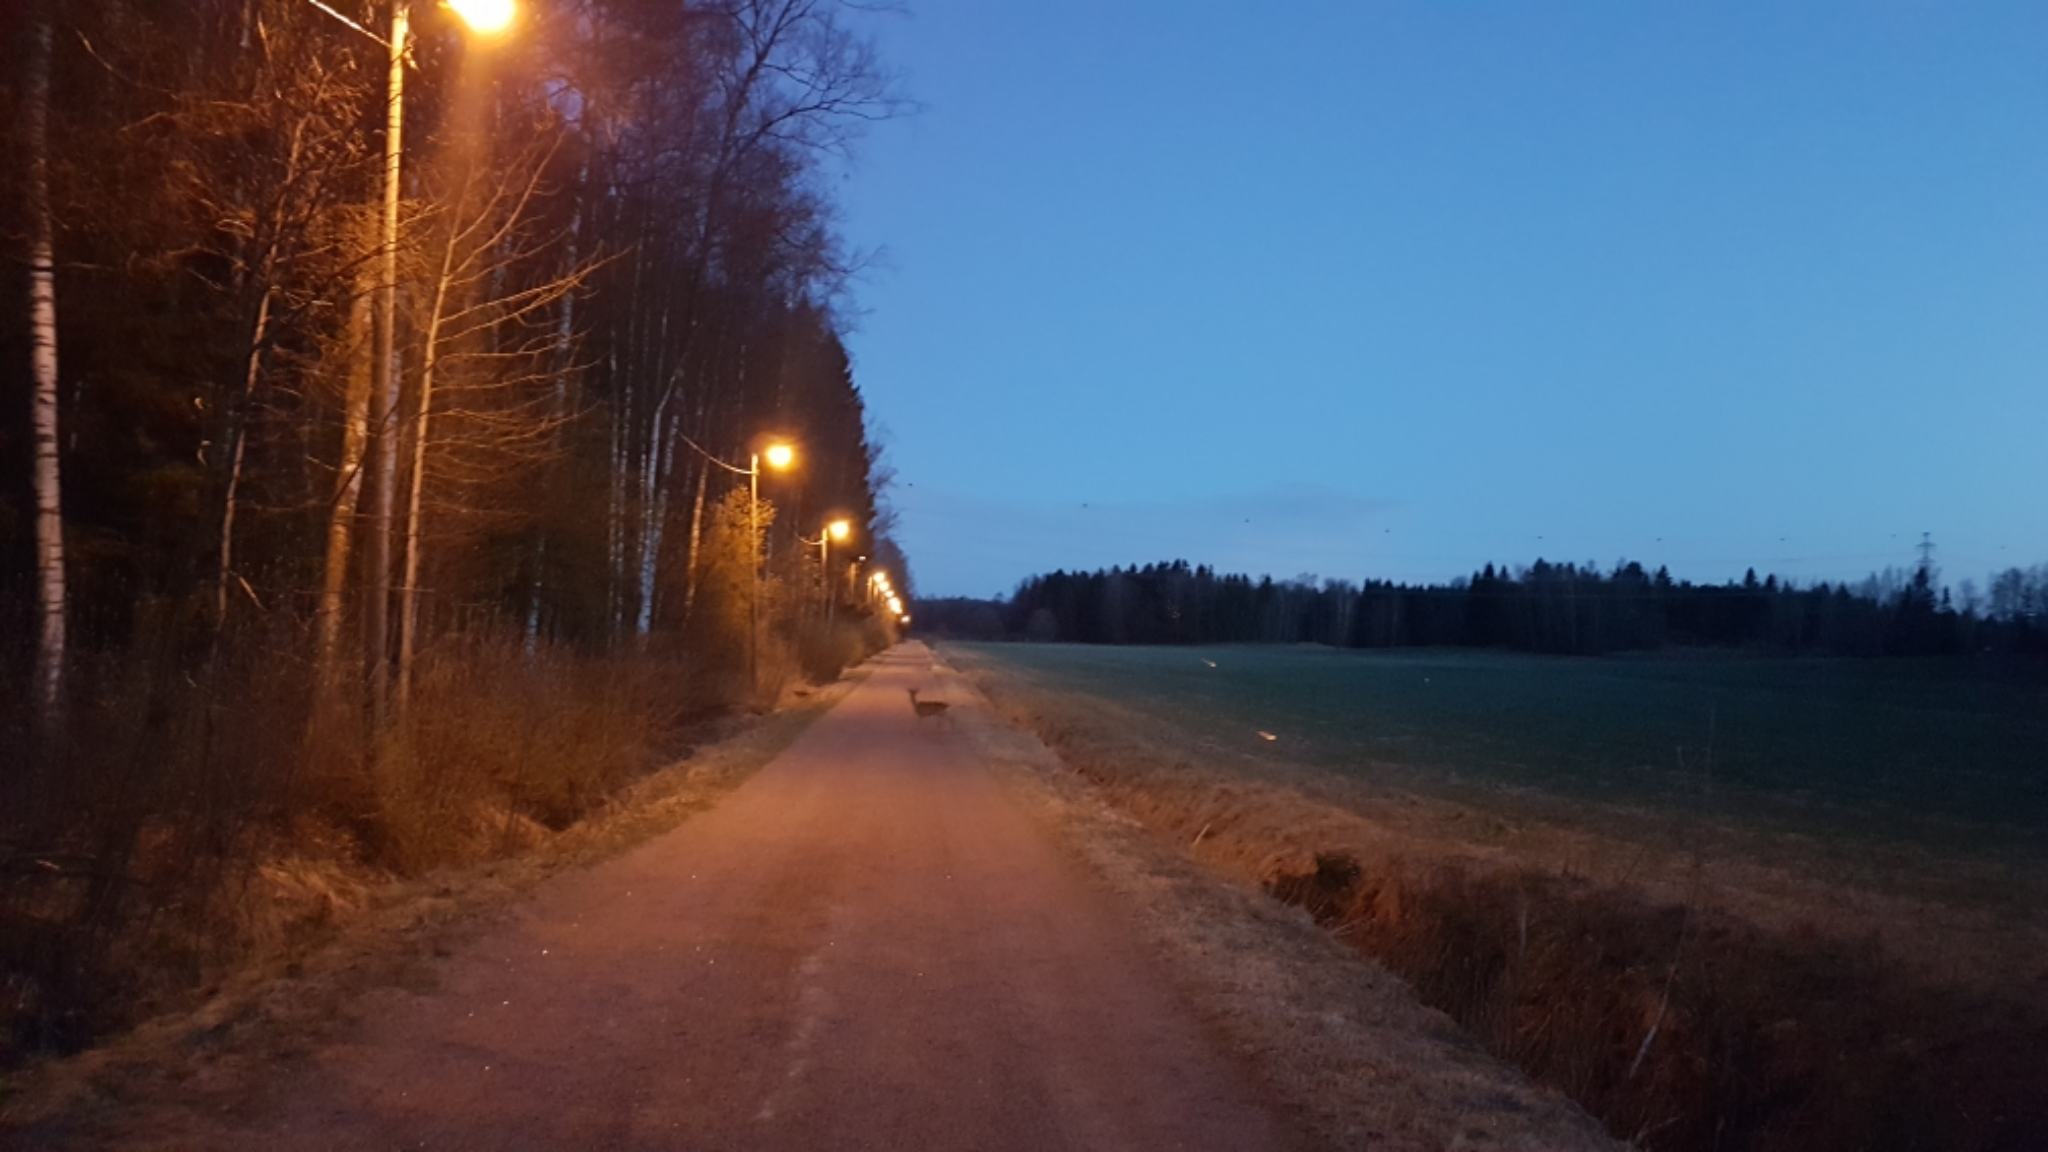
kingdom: Animalia
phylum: Chordata
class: Mammalia
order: Artiodactyla
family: Cervidae
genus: Capreolus
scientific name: Capreolus capreolus
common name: Western roe deer
